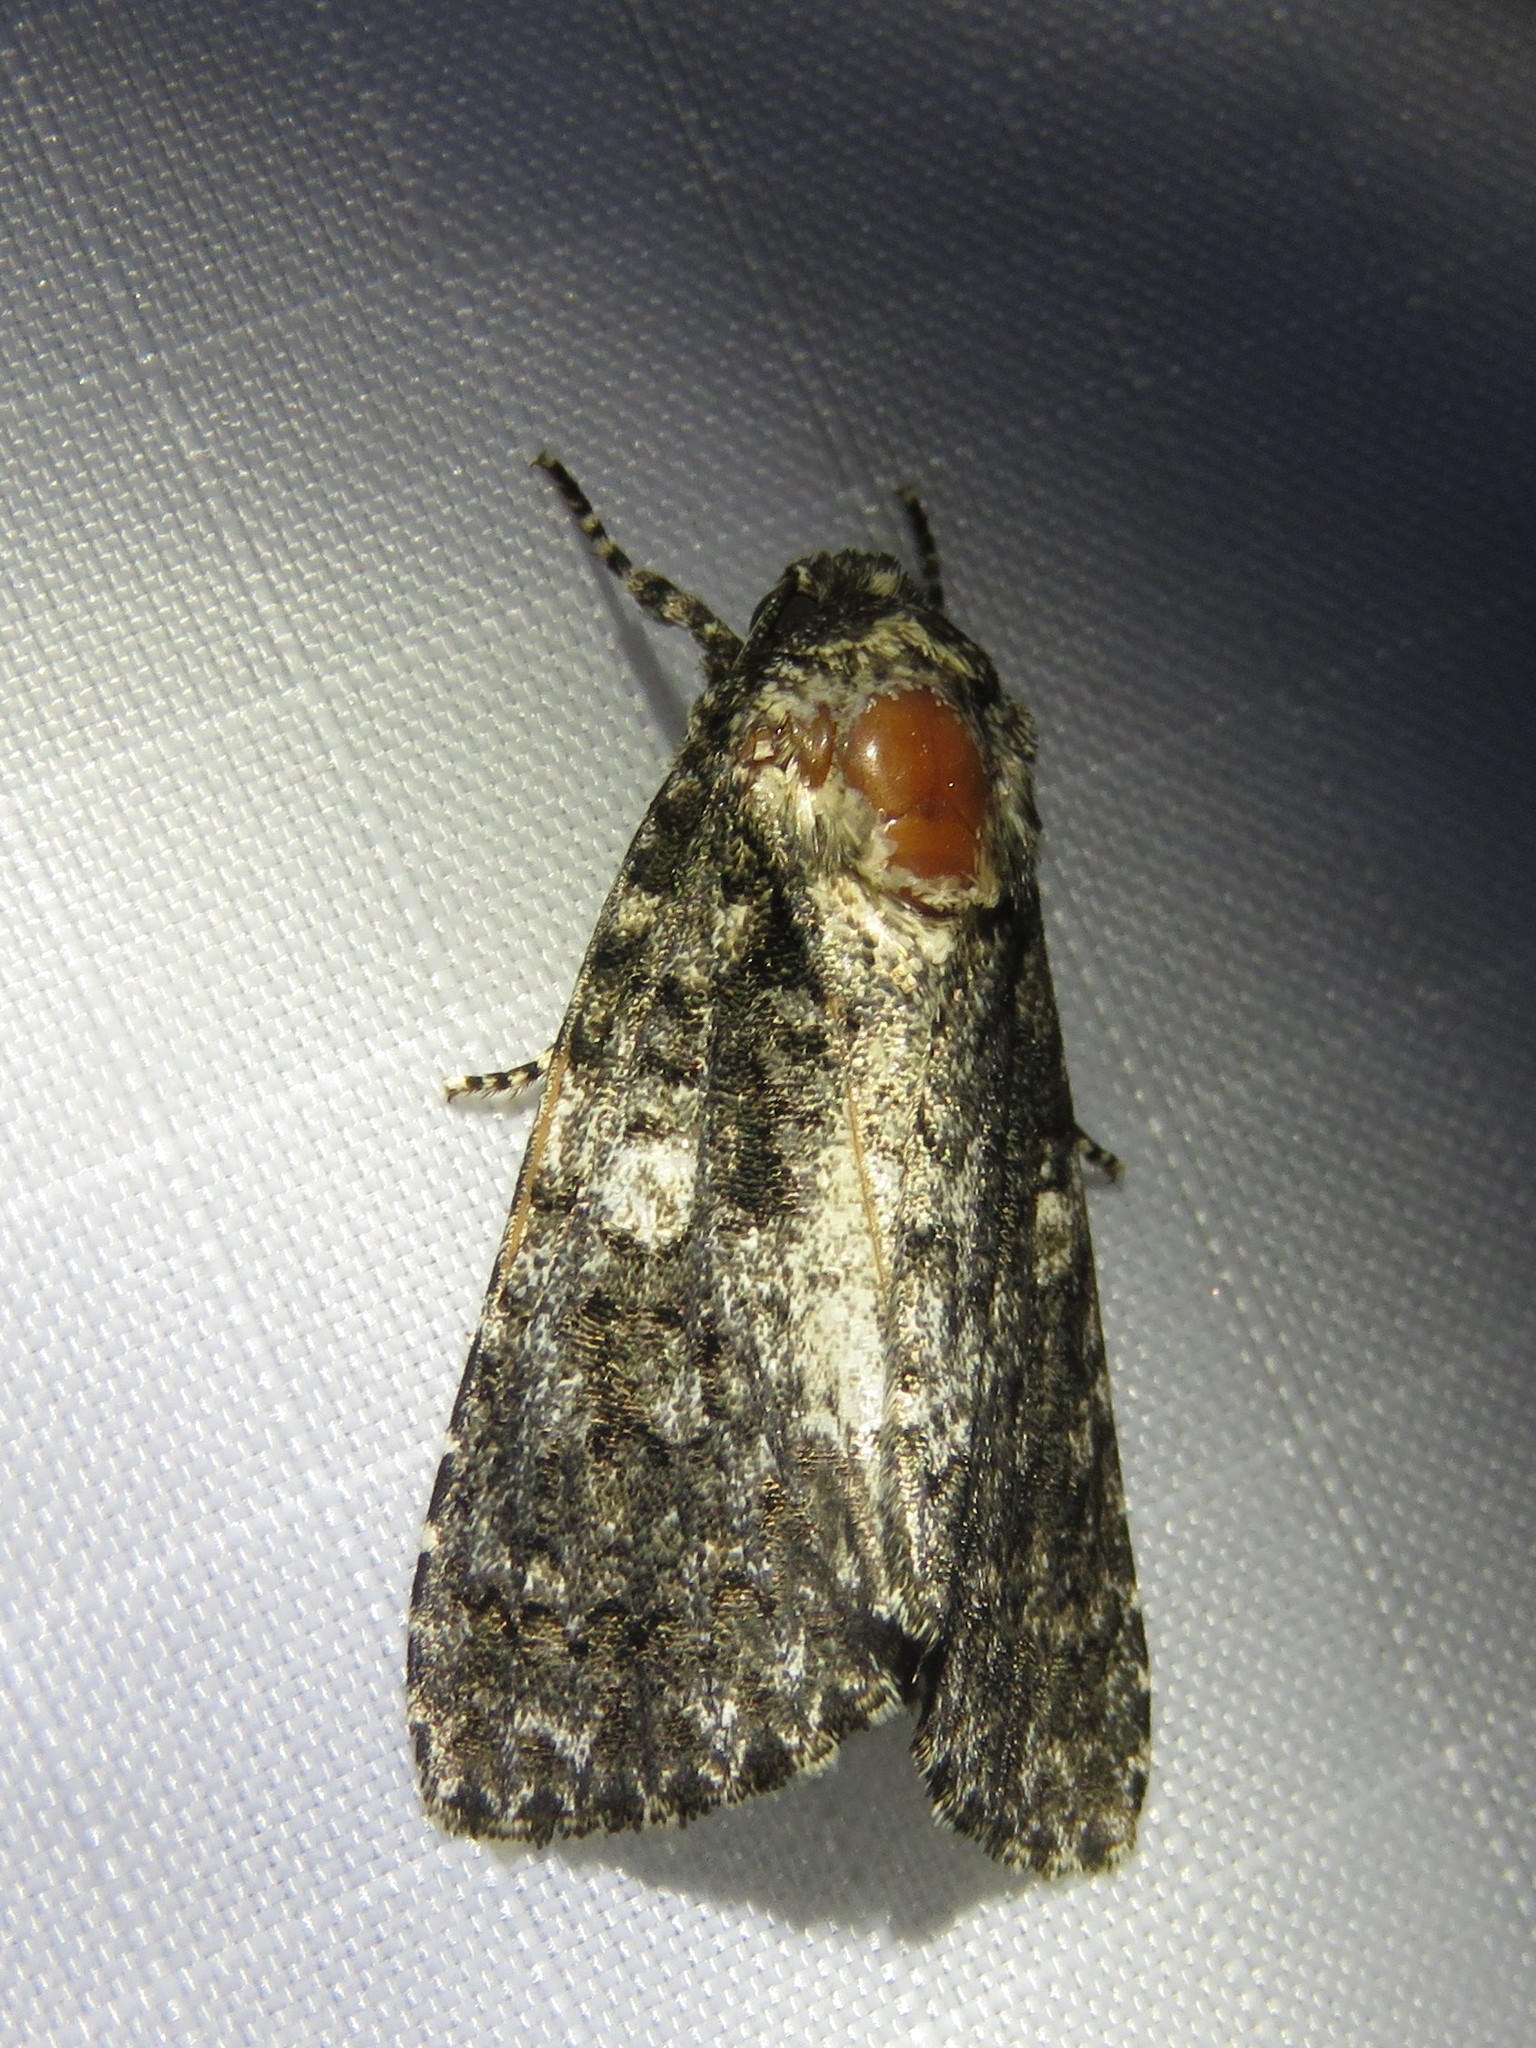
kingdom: Animalia
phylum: Arthropoda
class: Insecta
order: Lepidoptera
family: Noctuidae
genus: Acronicta
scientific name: Acronicta afflicta
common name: Afflicted dagger moth
